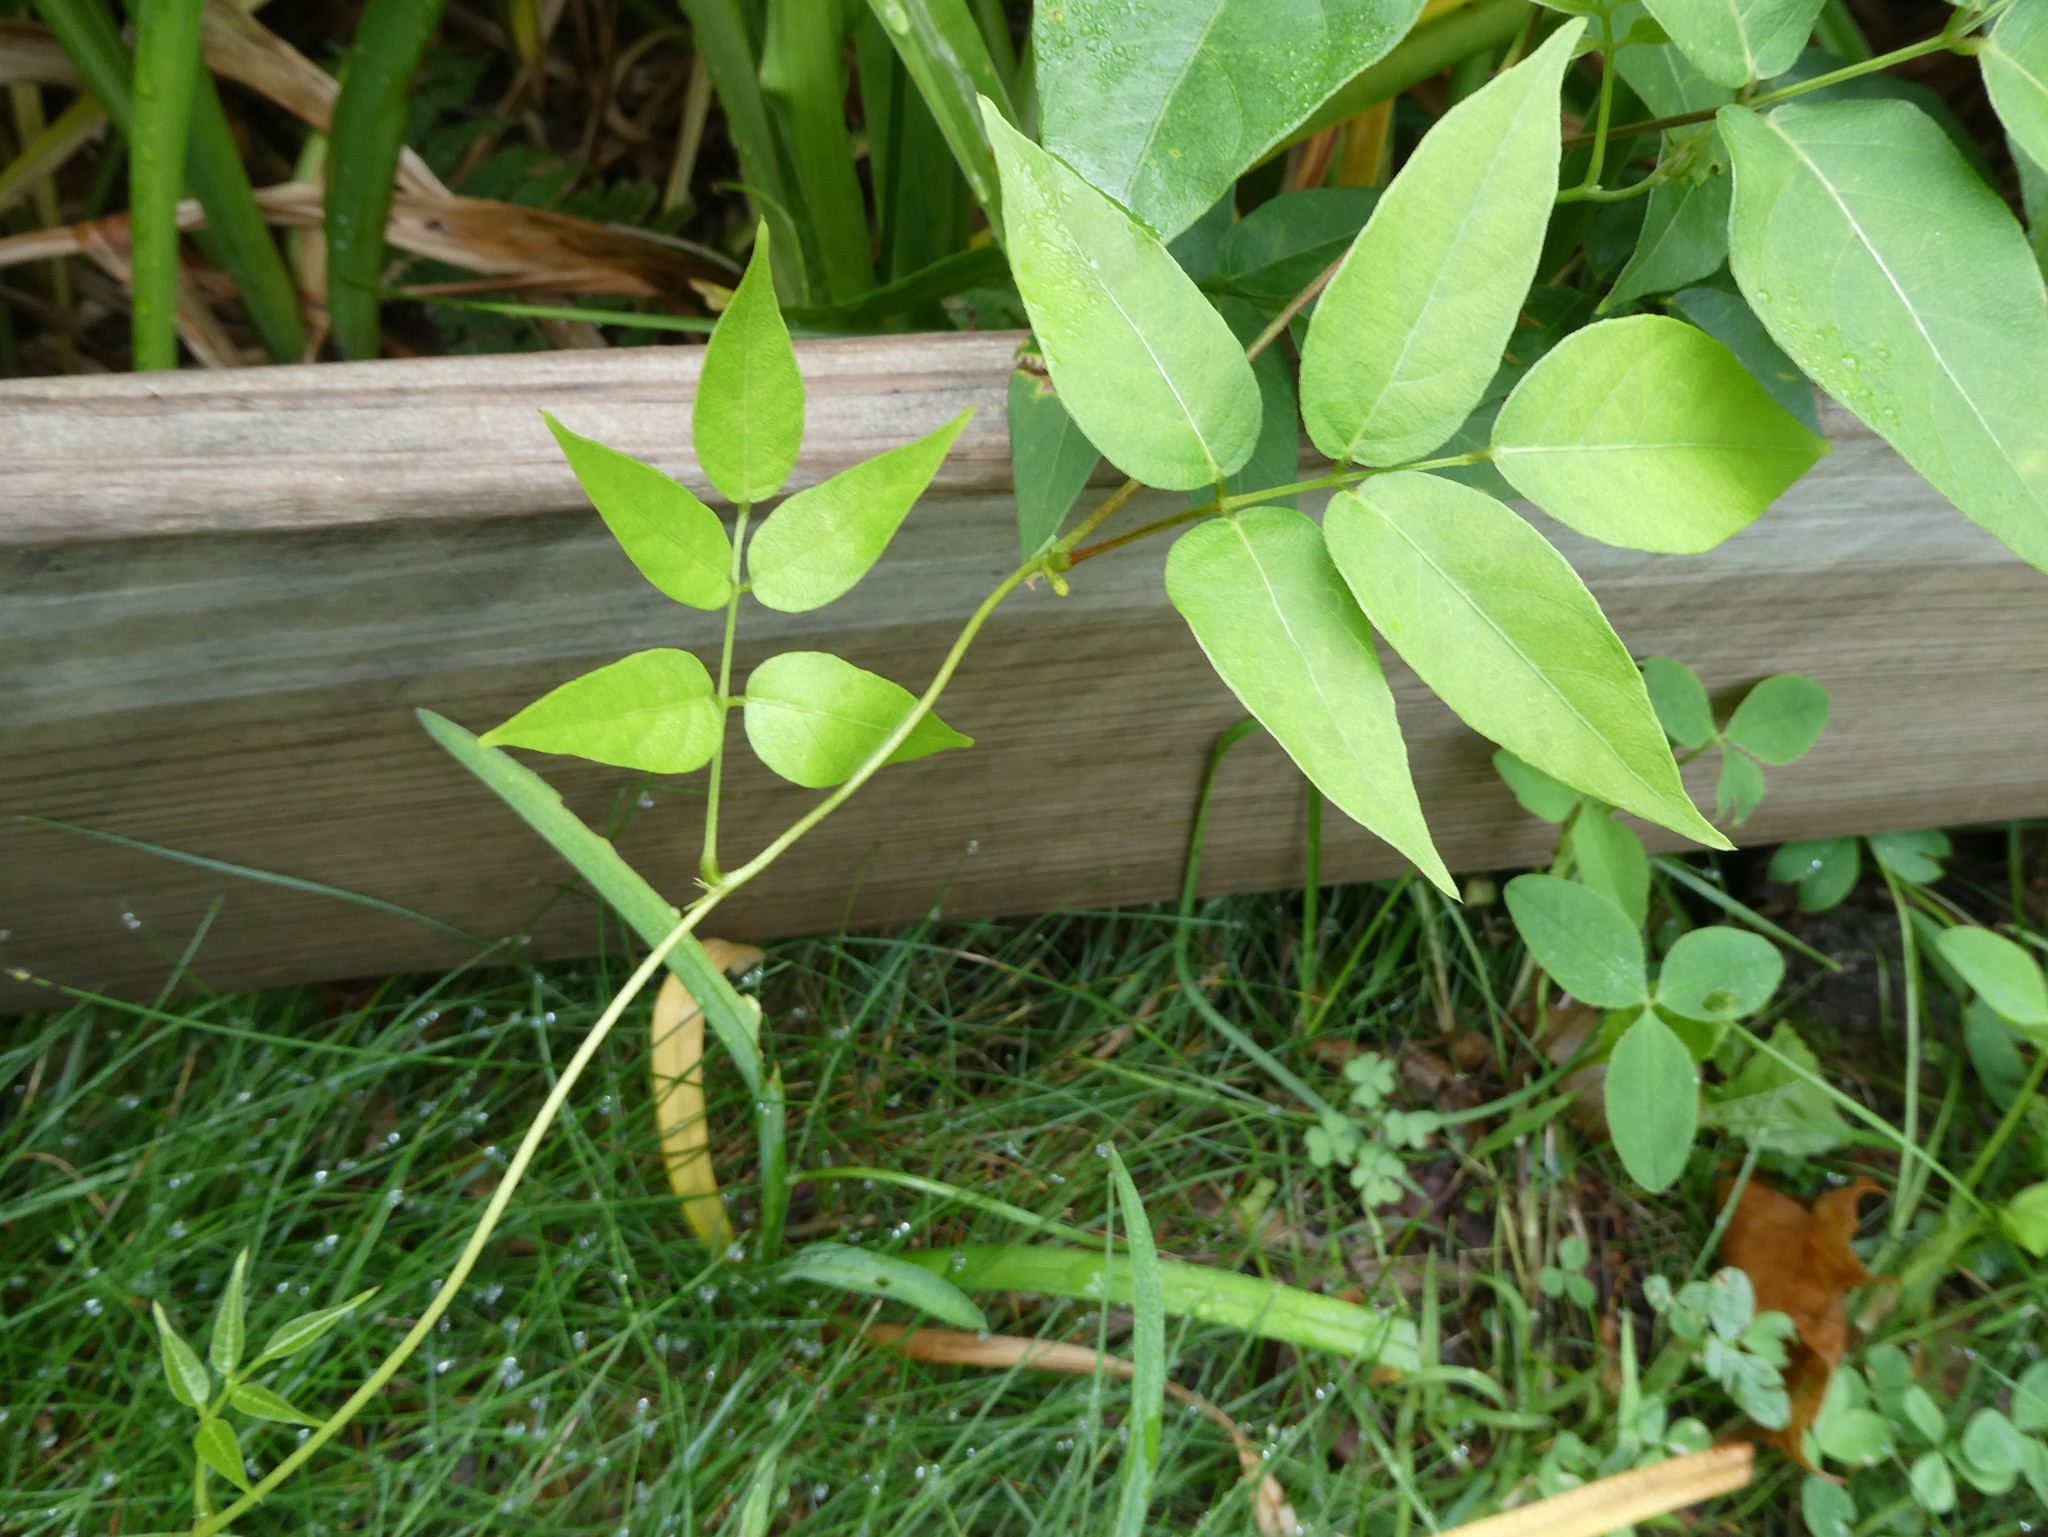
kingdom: Plantae
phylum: Tracheophyta
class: Magnoliopsida
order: Fabales
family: Fabaceae
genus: Apios
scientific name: Apios americana
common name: American potato-bean
